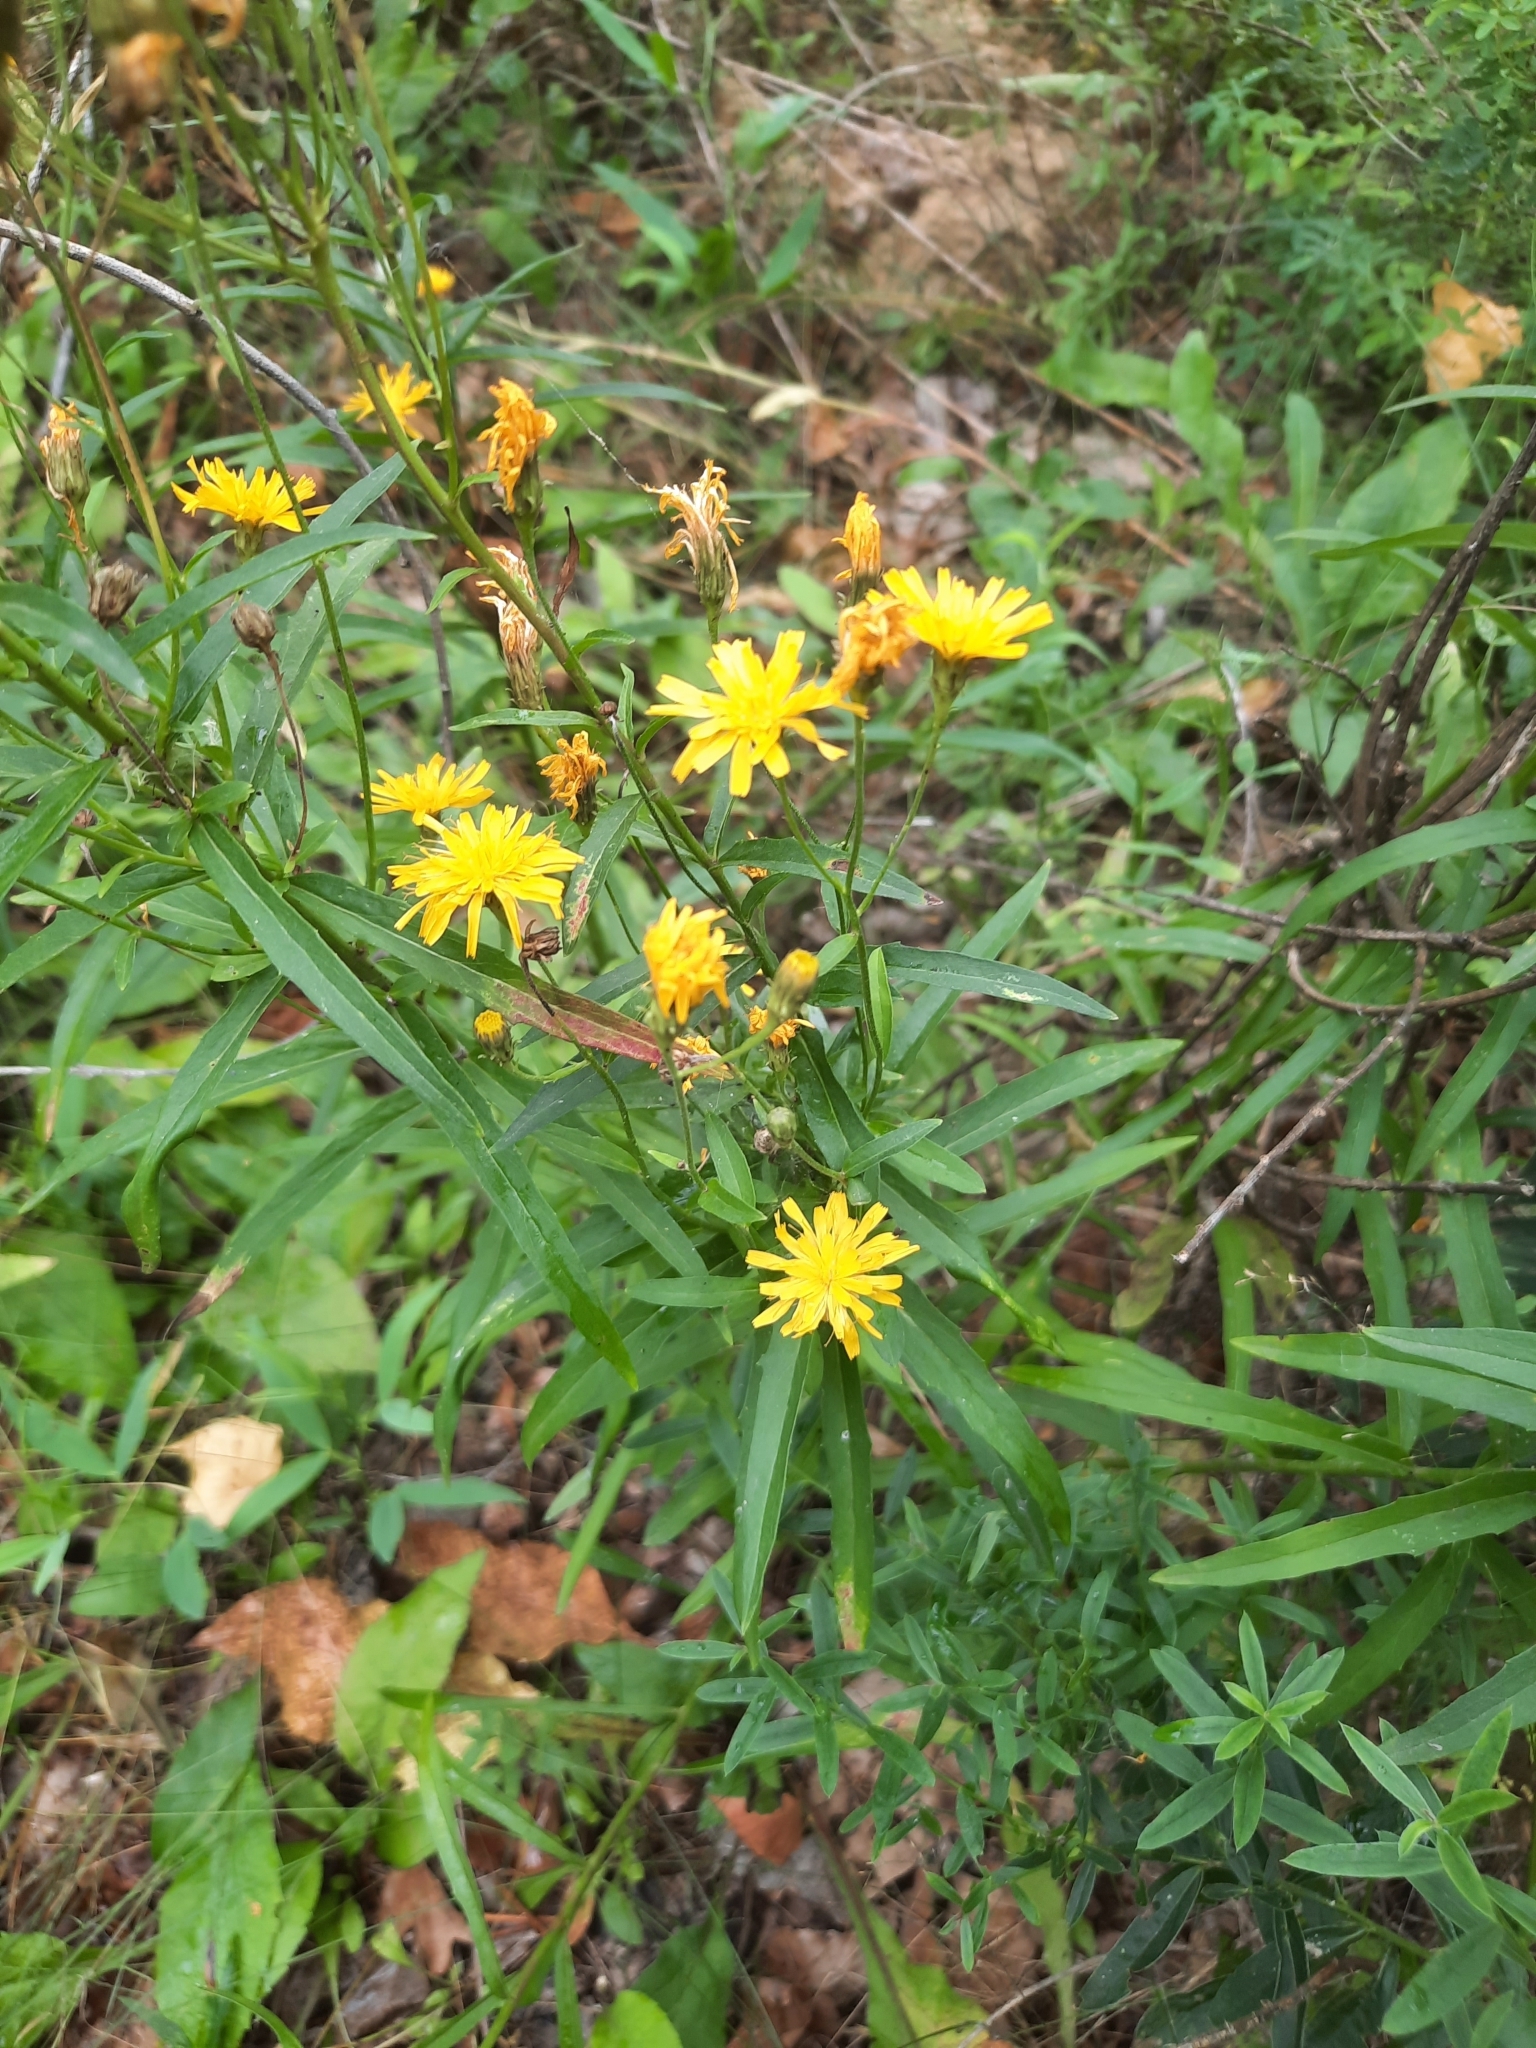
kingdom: Plantae
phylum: Tracheophyta
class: Magnoliopsida
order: Asterales
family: Asteraceae
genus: Hieracium
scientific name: Hieracium umbellatum
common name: Northern hawkweed
